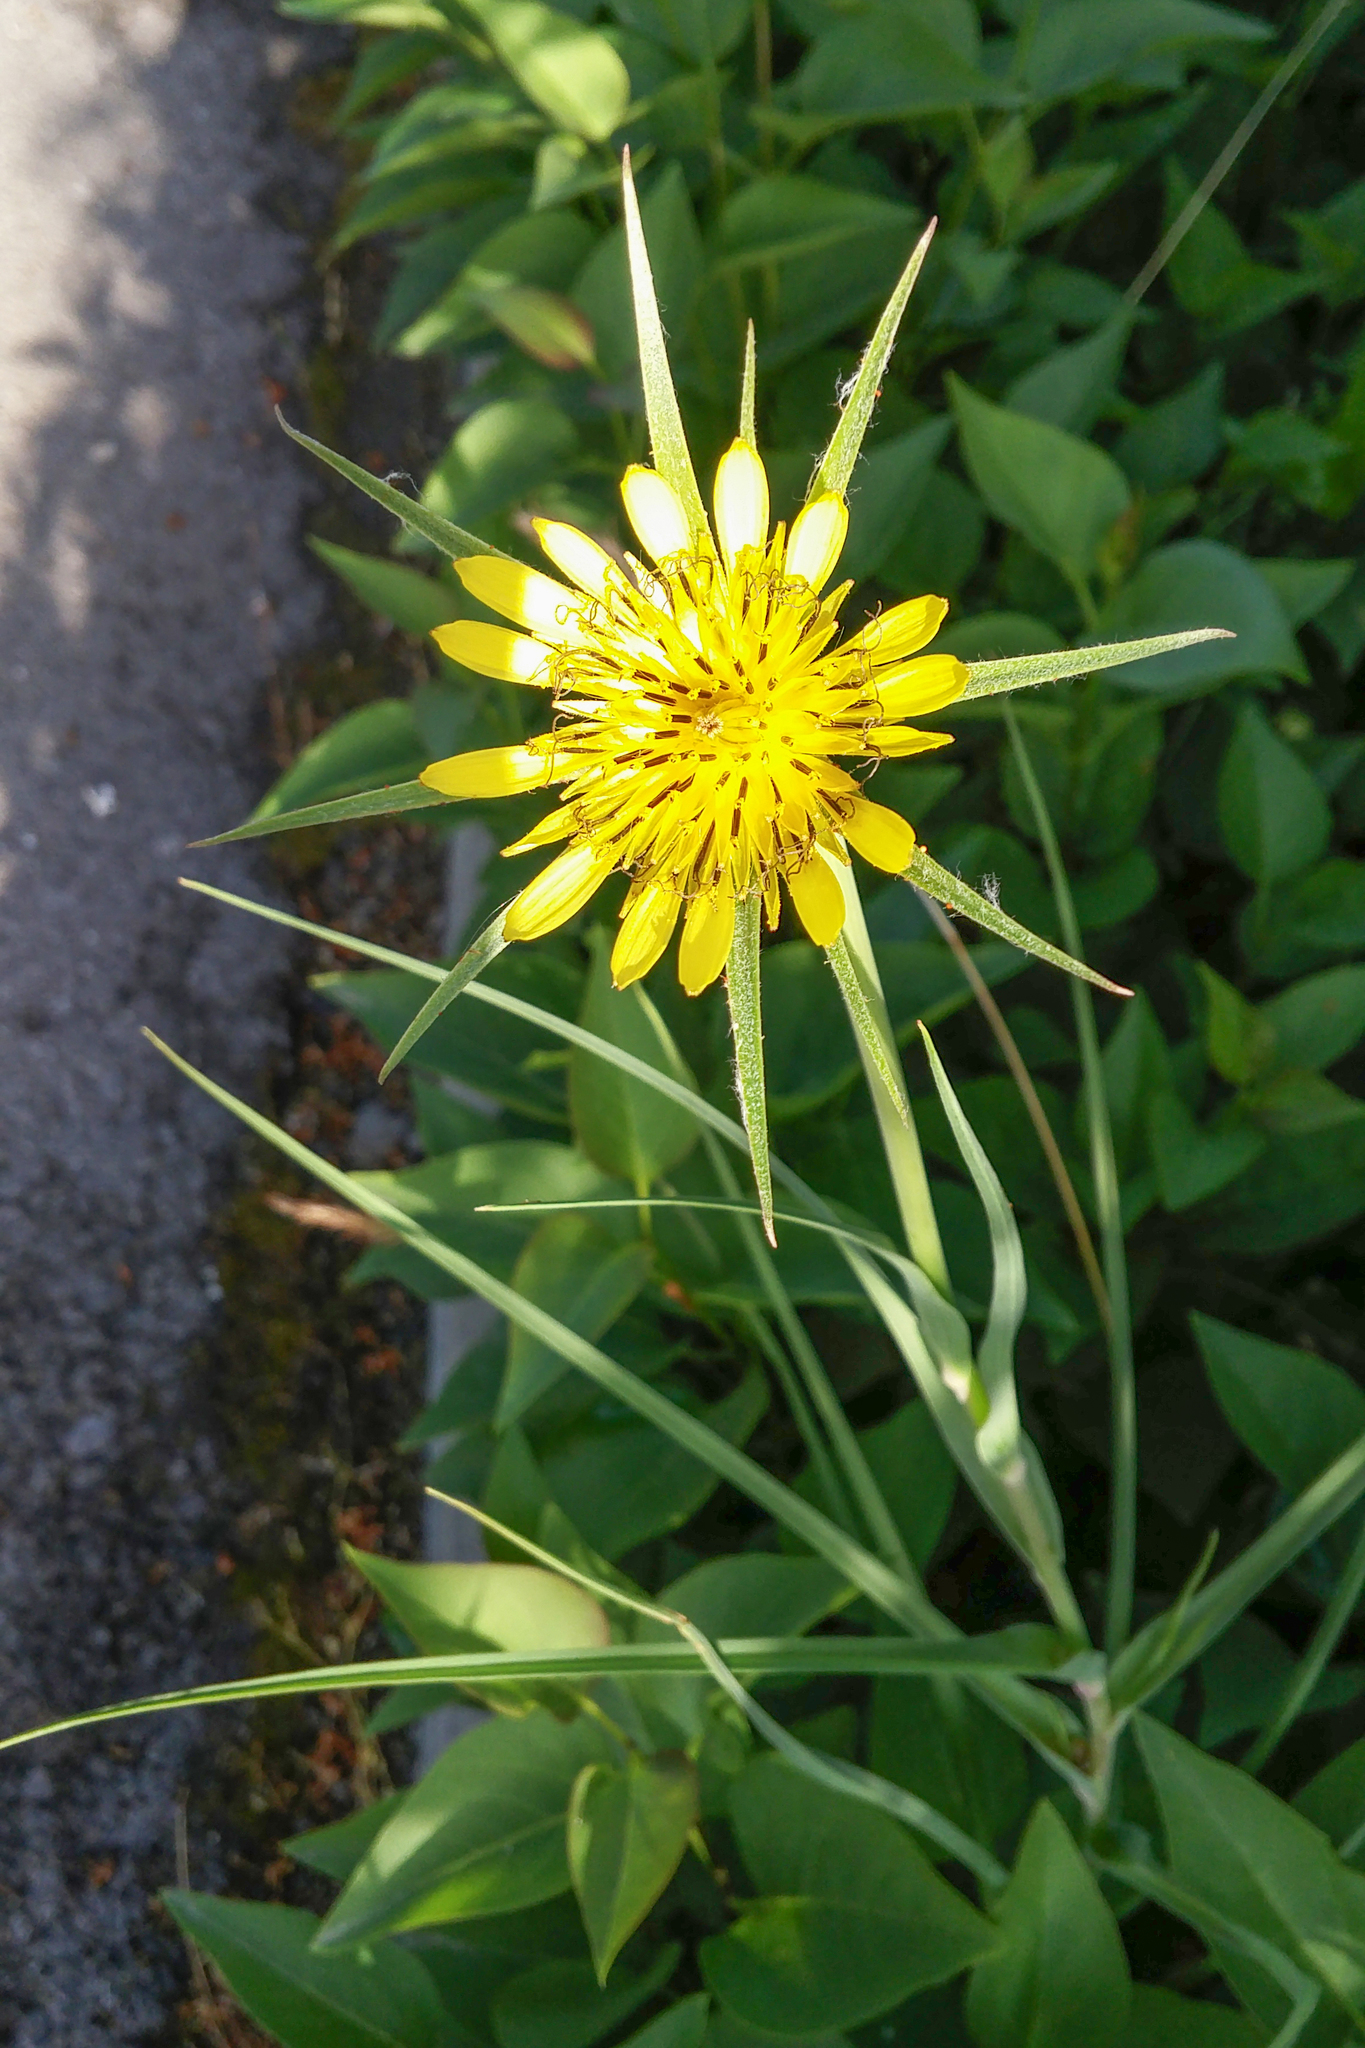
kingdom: Plantae
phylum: Tracheophyta
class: Magnoliopsida
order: Asterales
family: Asteraceae
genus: Tragopogon
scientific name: Tragopogon dubius
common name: Yellow salsify
